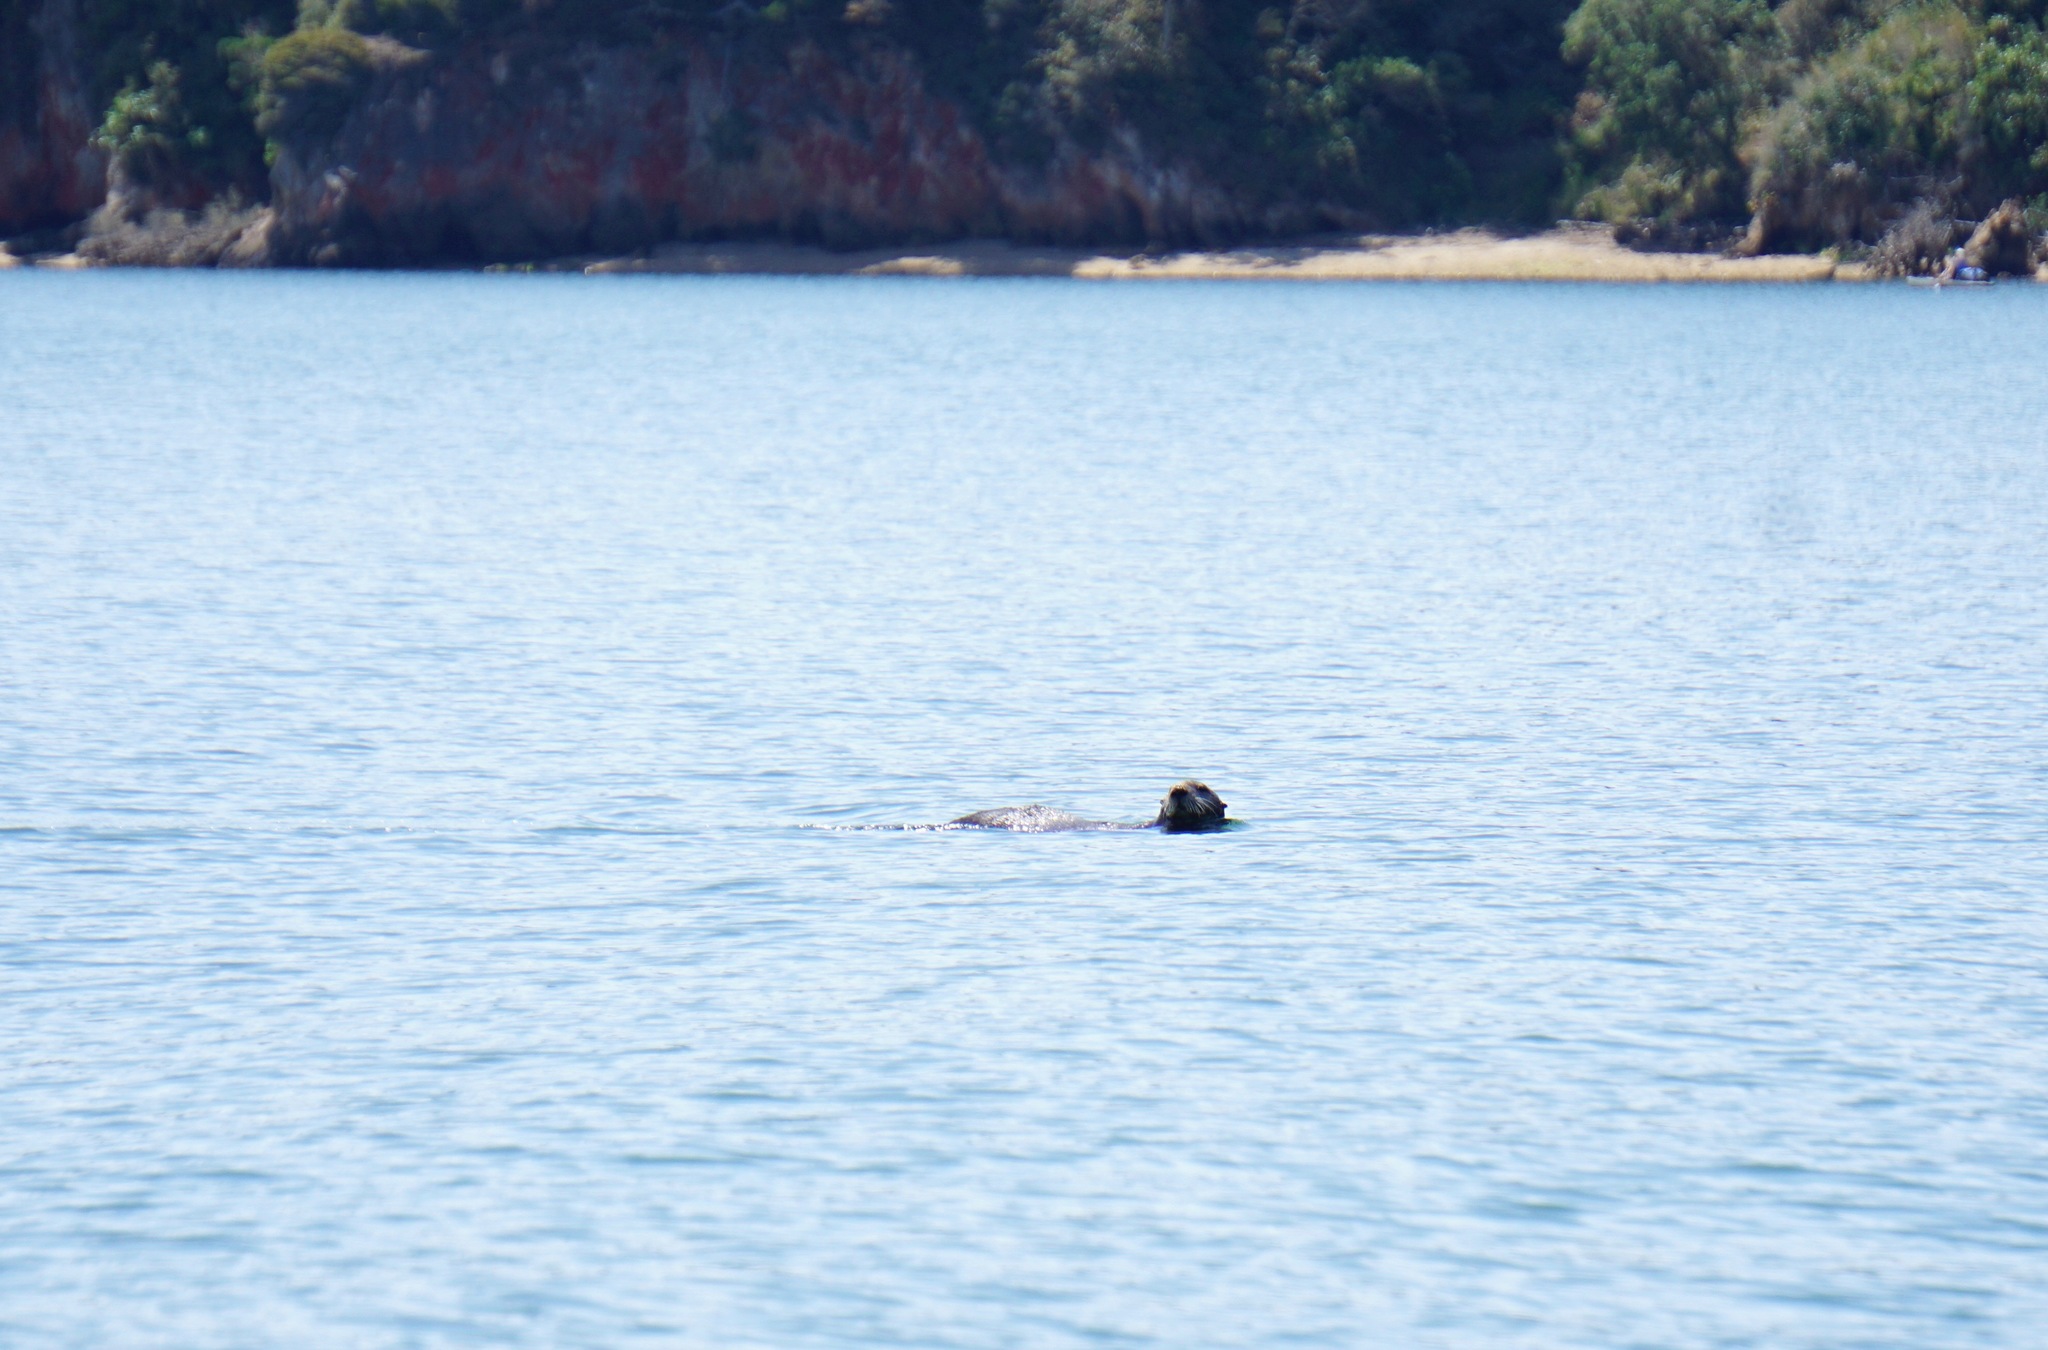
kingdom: Animalia
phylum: Chordata
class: Mammalia
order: Carnivora
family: Mustelidae
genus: Enhydra
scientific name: Enhydra lutris
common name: Sea otter
